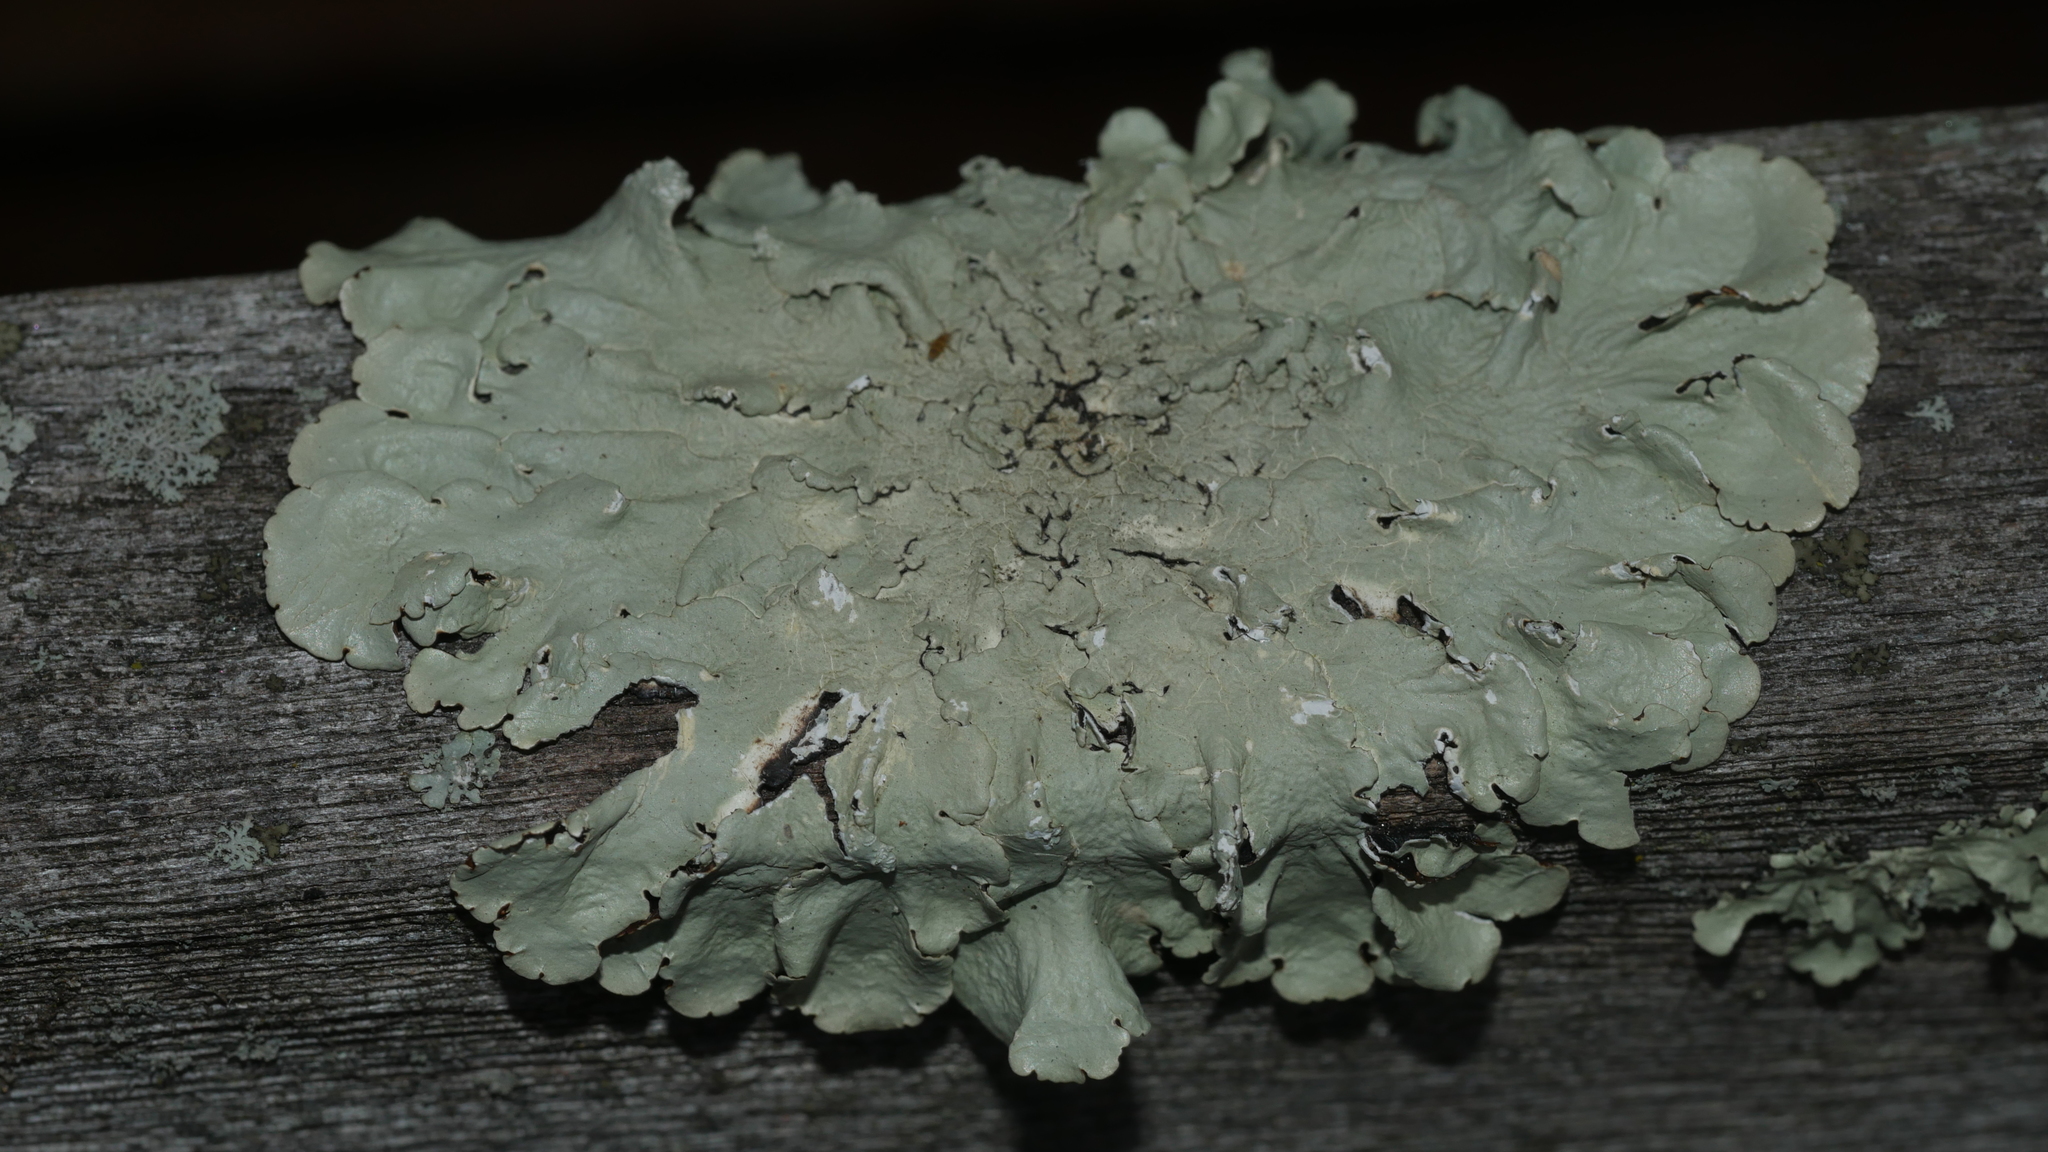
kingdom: Fungi
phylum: Ascomycota
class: Lecanoromycetes
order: Lecanorales
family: Parmeliaceae
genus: Flavoparmelia
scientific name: Flavoparmelia caperata
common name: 40-mile per hour lichen
